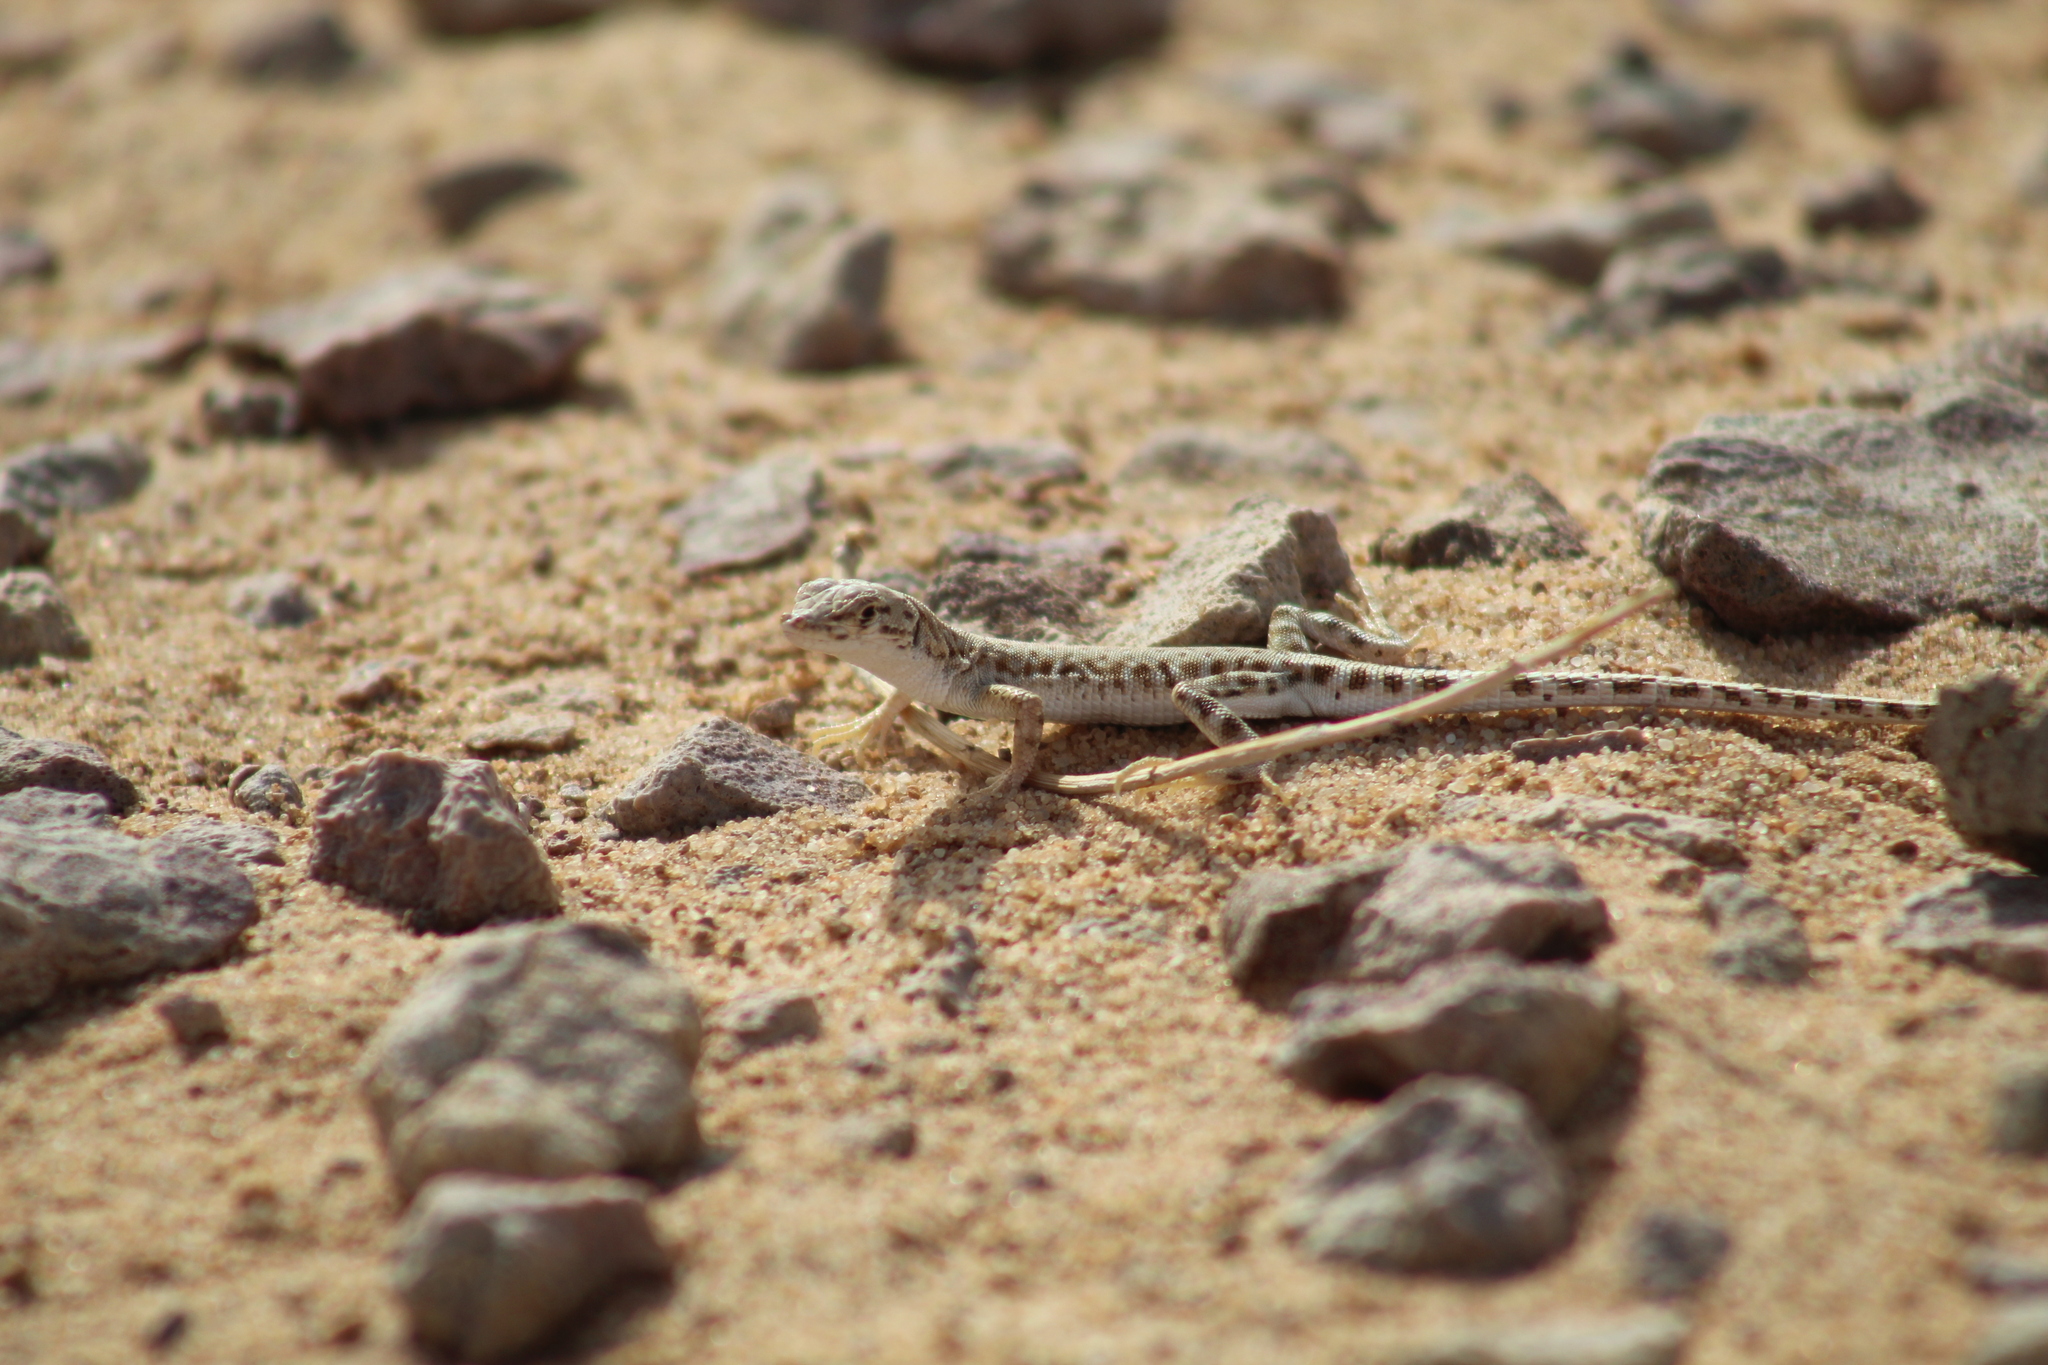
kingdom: Animalia
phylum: Chordata
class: Squamata
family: Lacertidae
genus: Mesalina
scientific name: Mesalina brevirostris
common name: Blanford's short-nosed desert lizard
